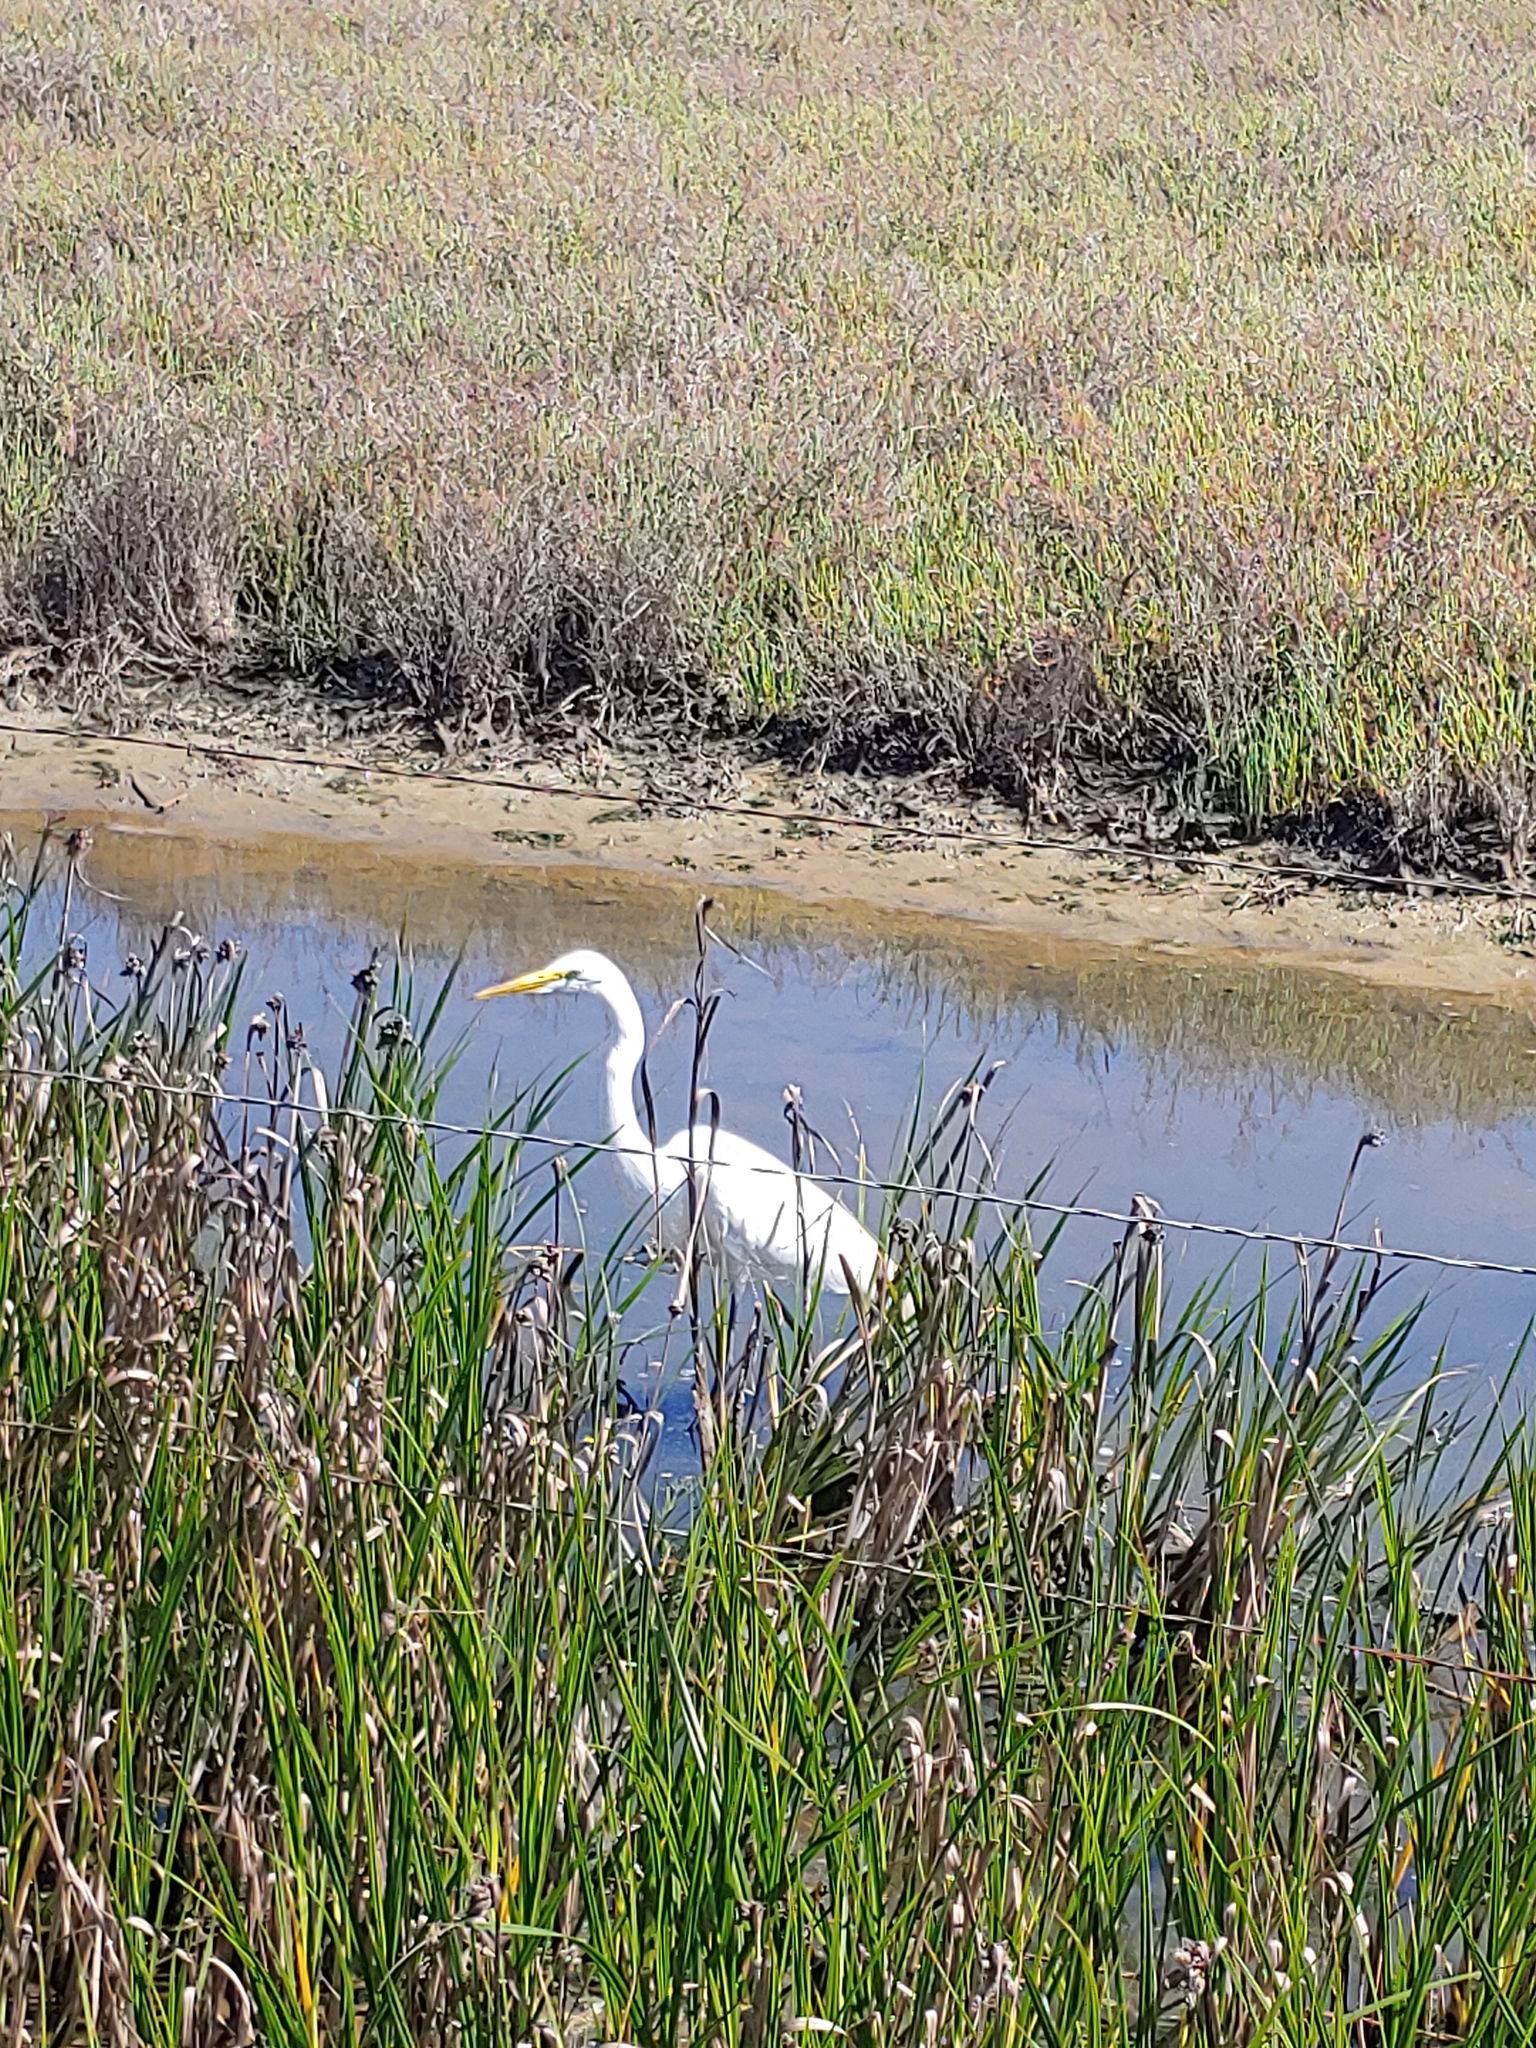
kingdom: Animalia
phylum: Chordata
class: Aves
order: Pelecaniformes
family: Ardeidae
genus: Ardea
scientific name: Ardea alba
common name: Great egret
